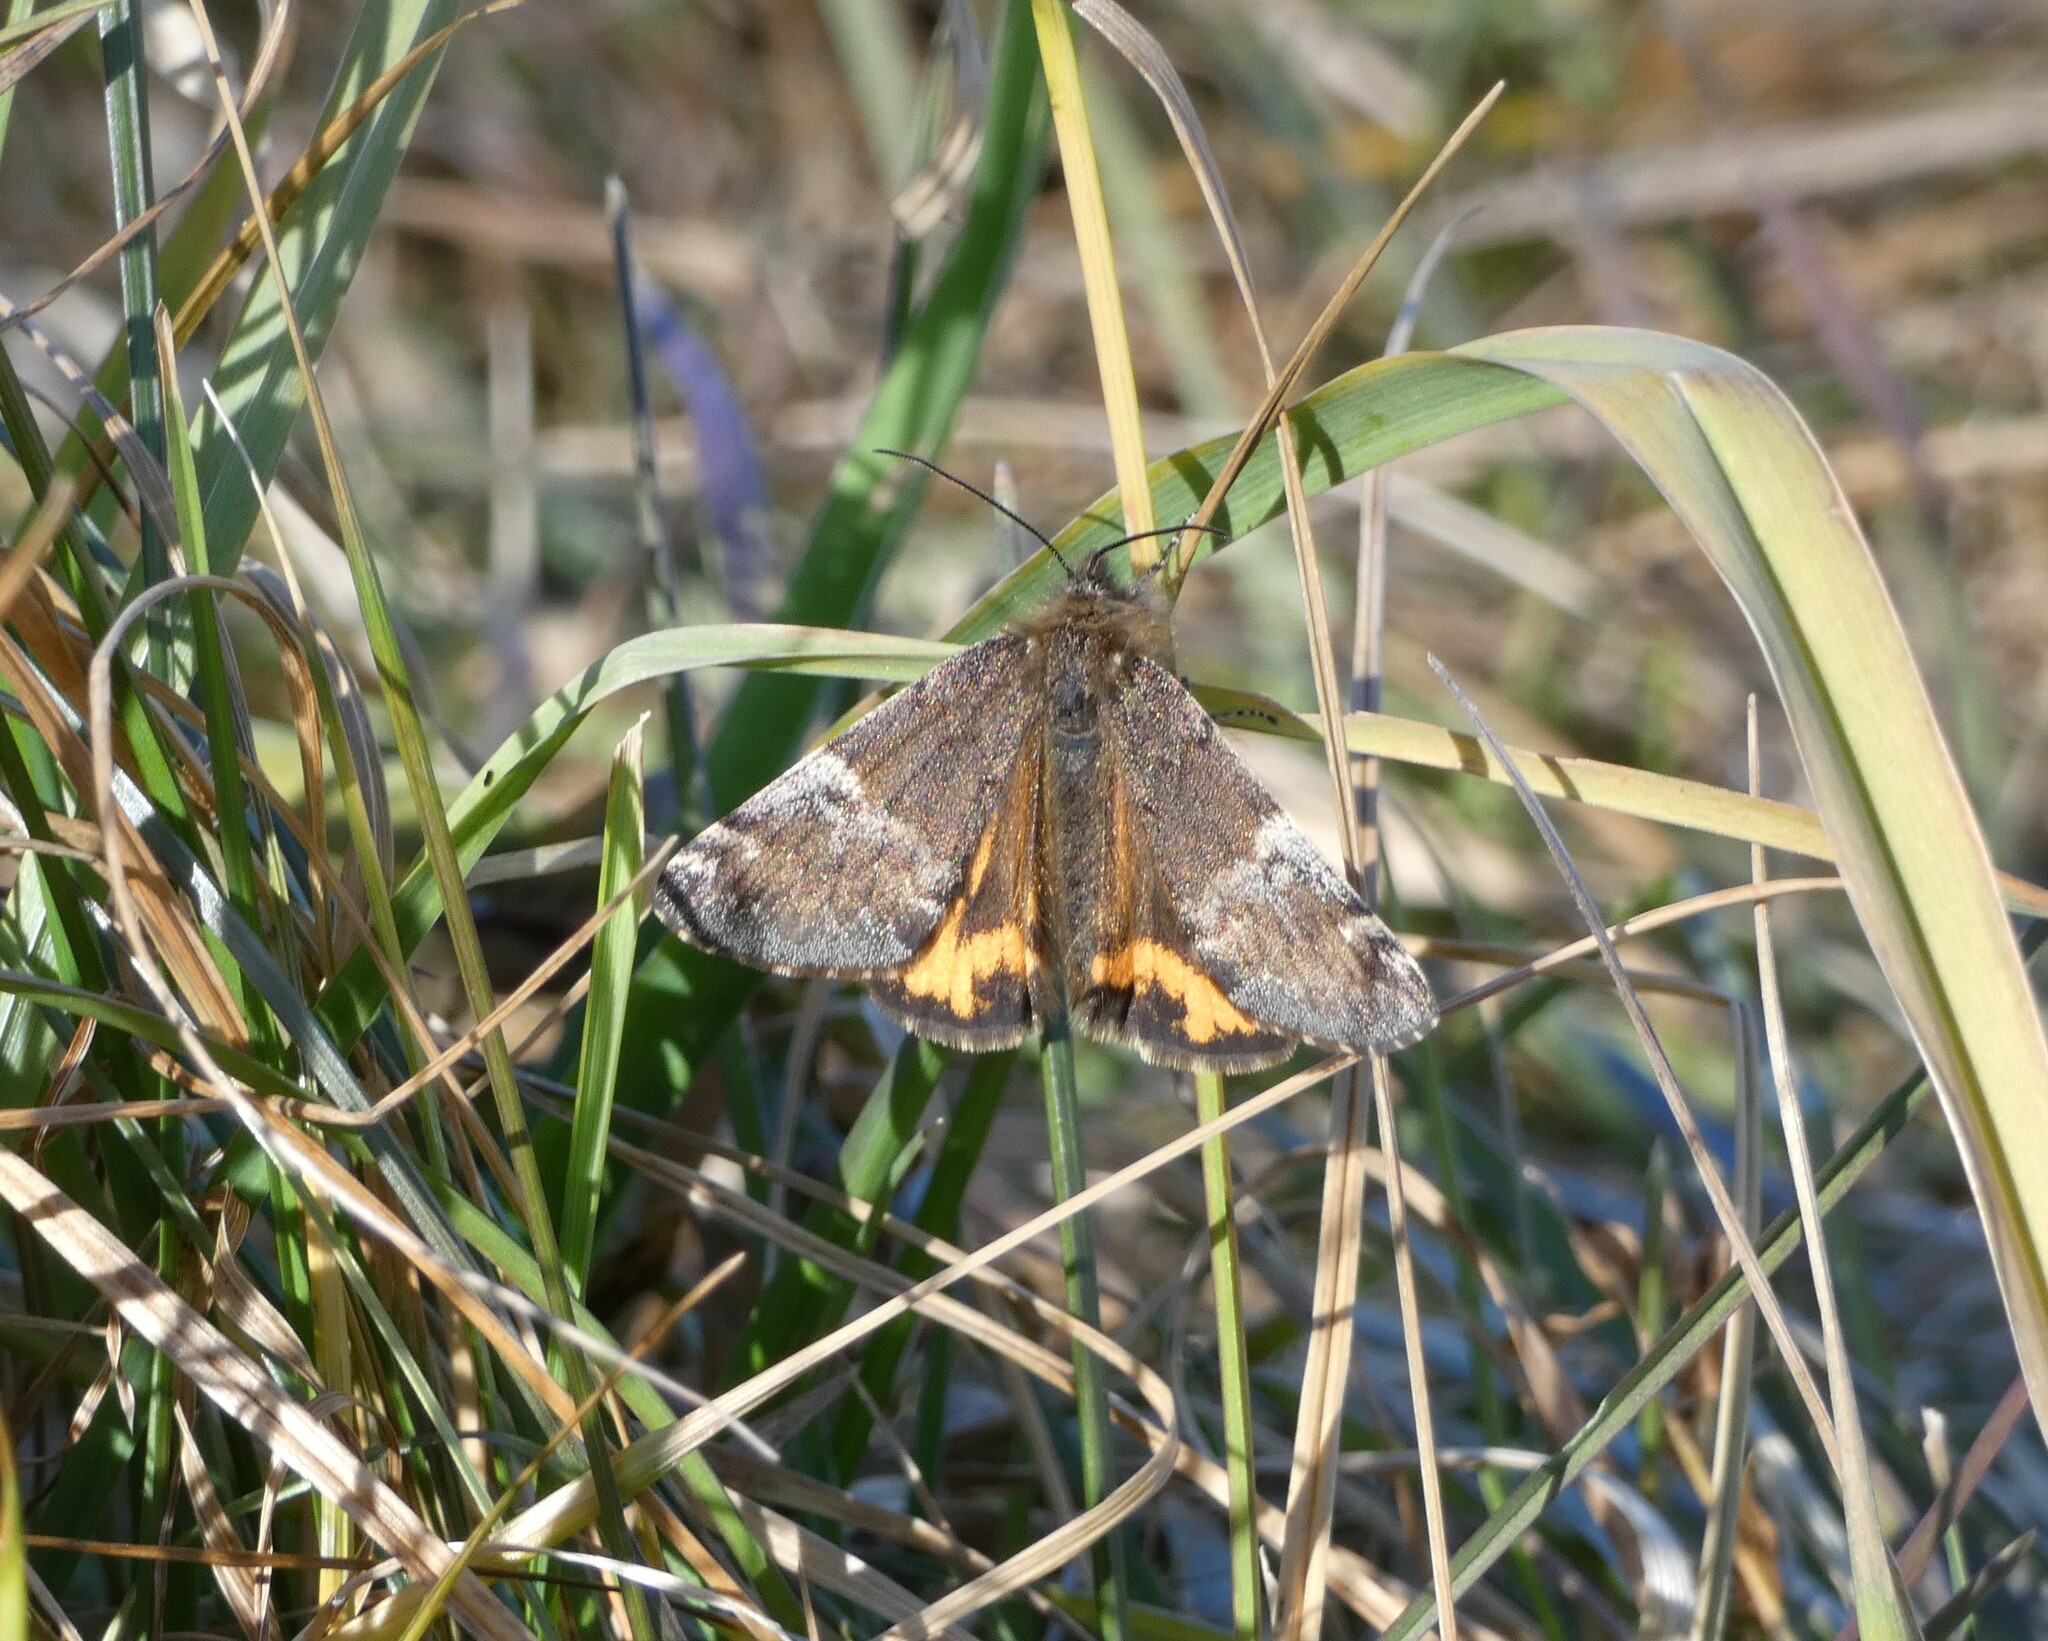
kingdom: Animalia
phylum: Arthropoda
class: Insecta
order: Lepidoptera
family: Geometridae
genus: Archiearis
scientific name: Archiearis parthenias
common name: Orange underwing
